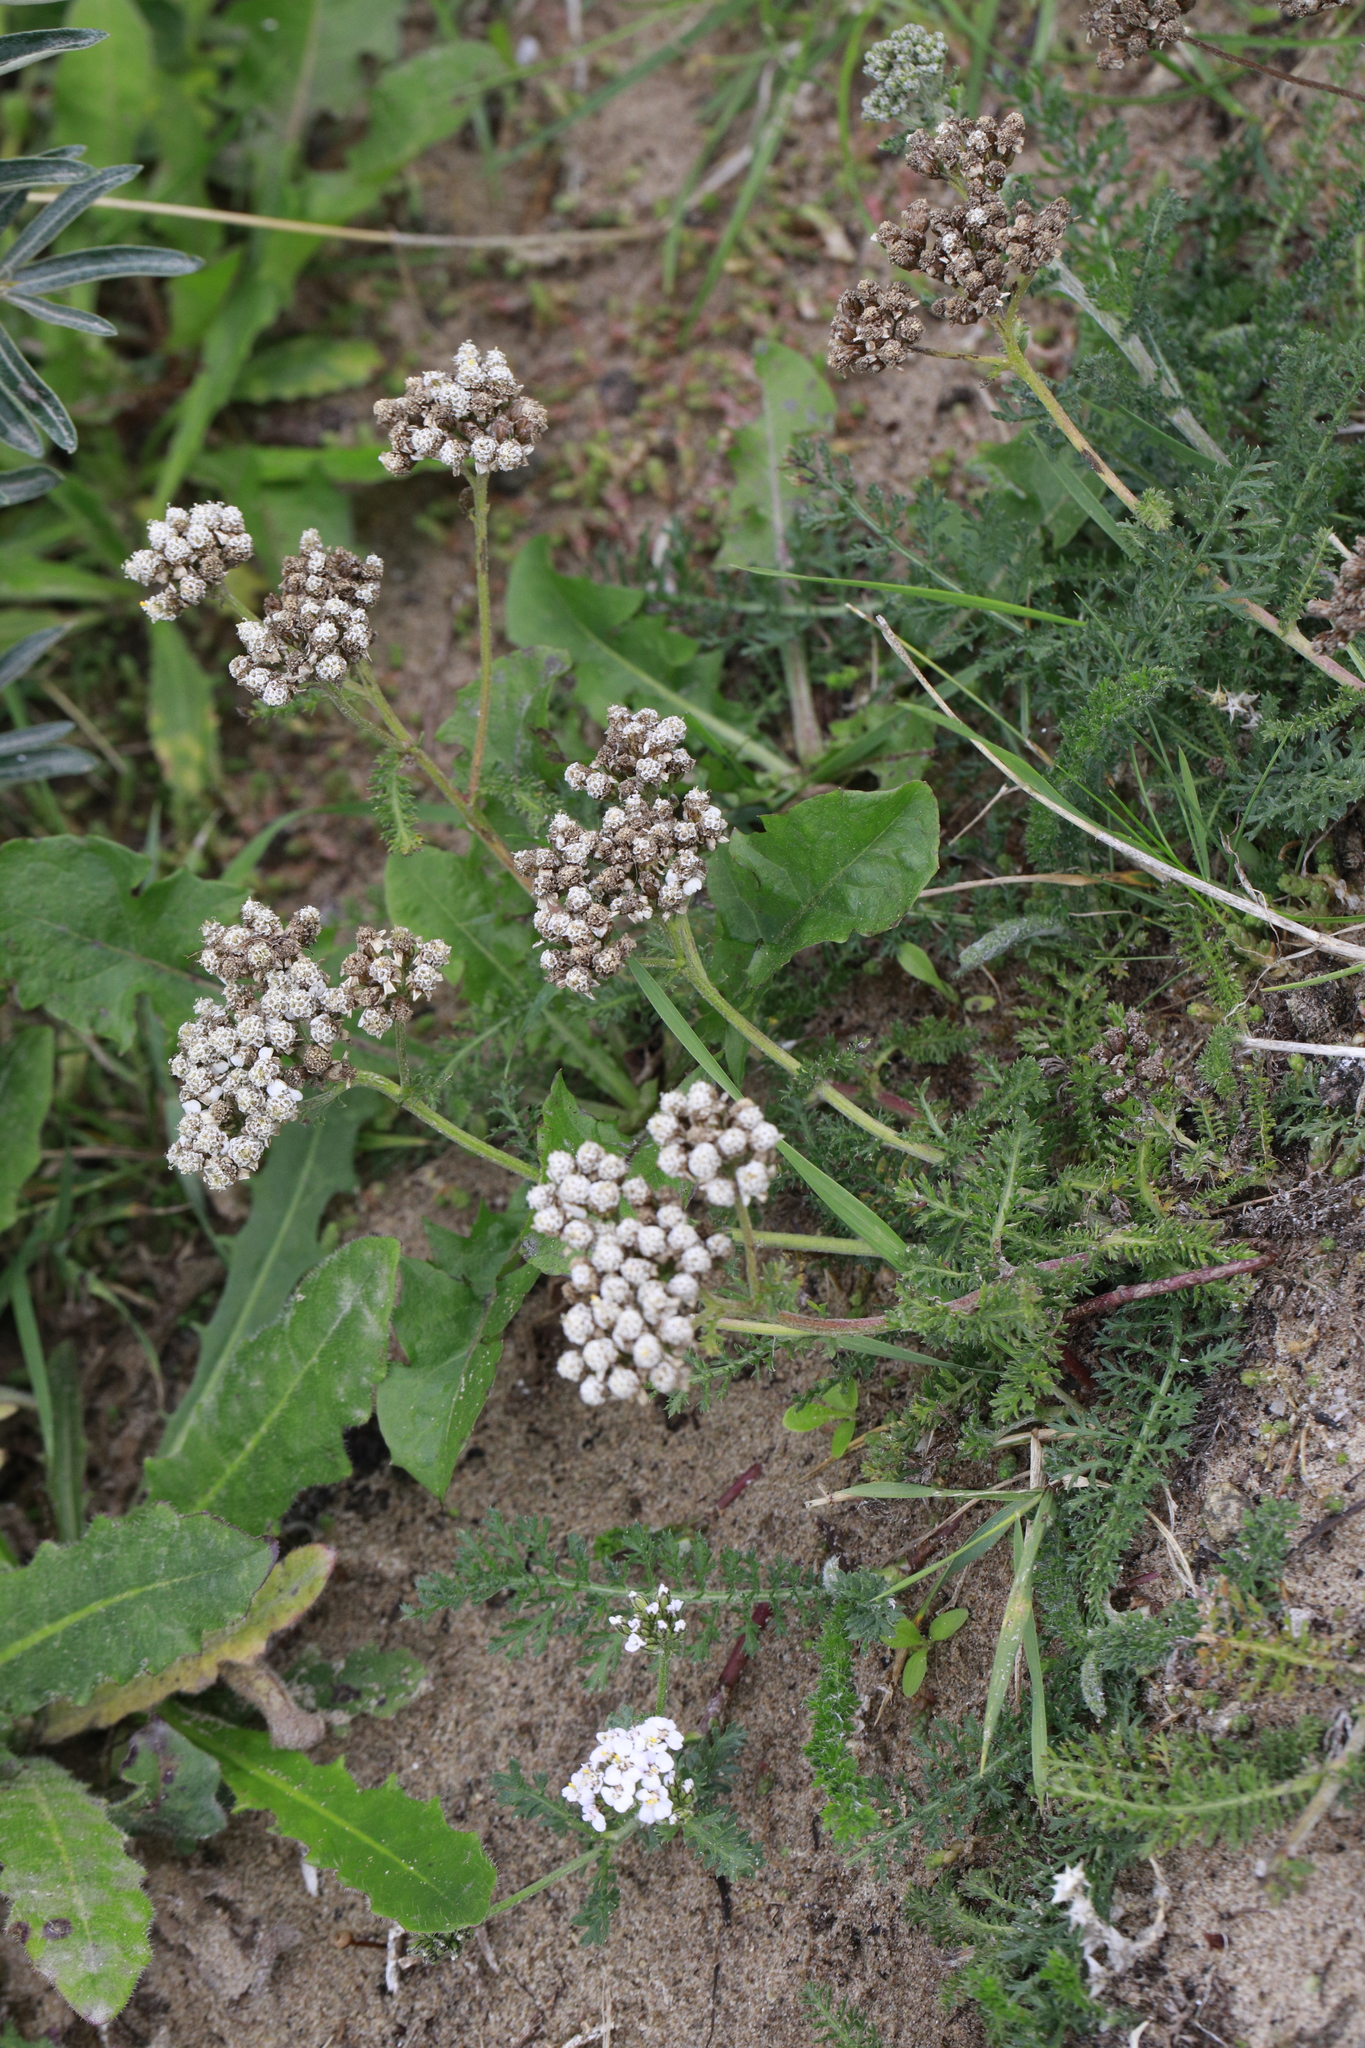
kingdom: Plantae
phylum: Tracheophyta
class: Magnoliopsida
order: Asterales
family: Asteraceae
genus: Achillea
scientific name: Achillea millefolium
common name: Yarrow
